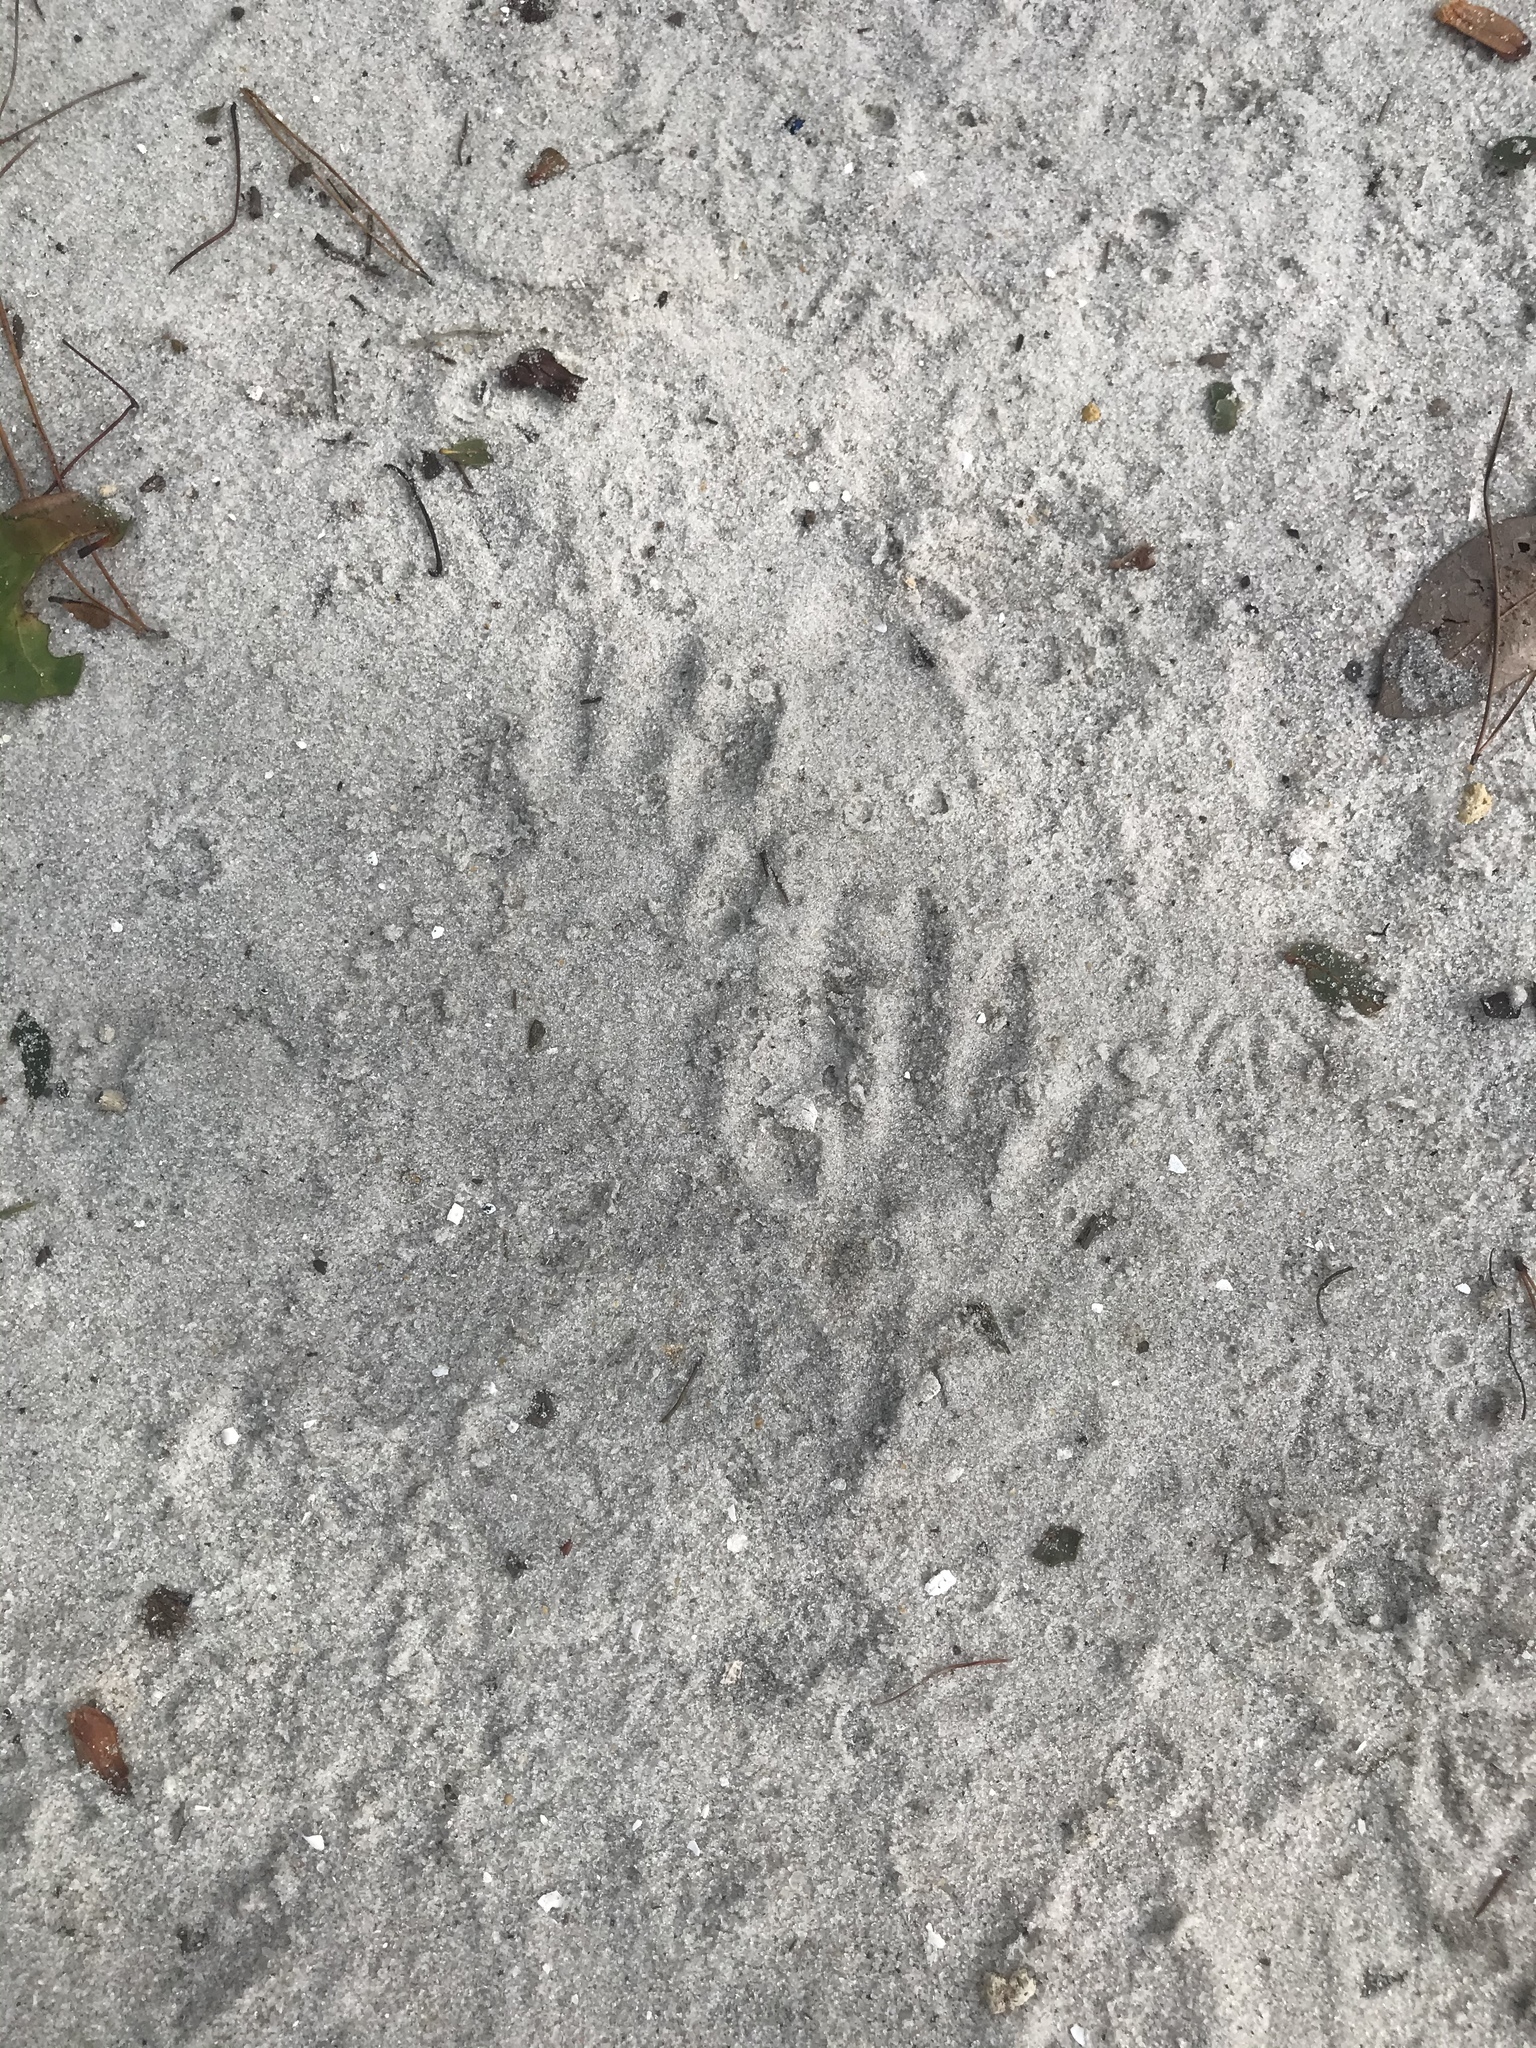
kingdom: Animalia
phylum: Chordata
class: Mammalia
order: Carnivora
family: Procyonidae
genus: Procyon
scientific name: Procyon lotor
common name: Raccoon
